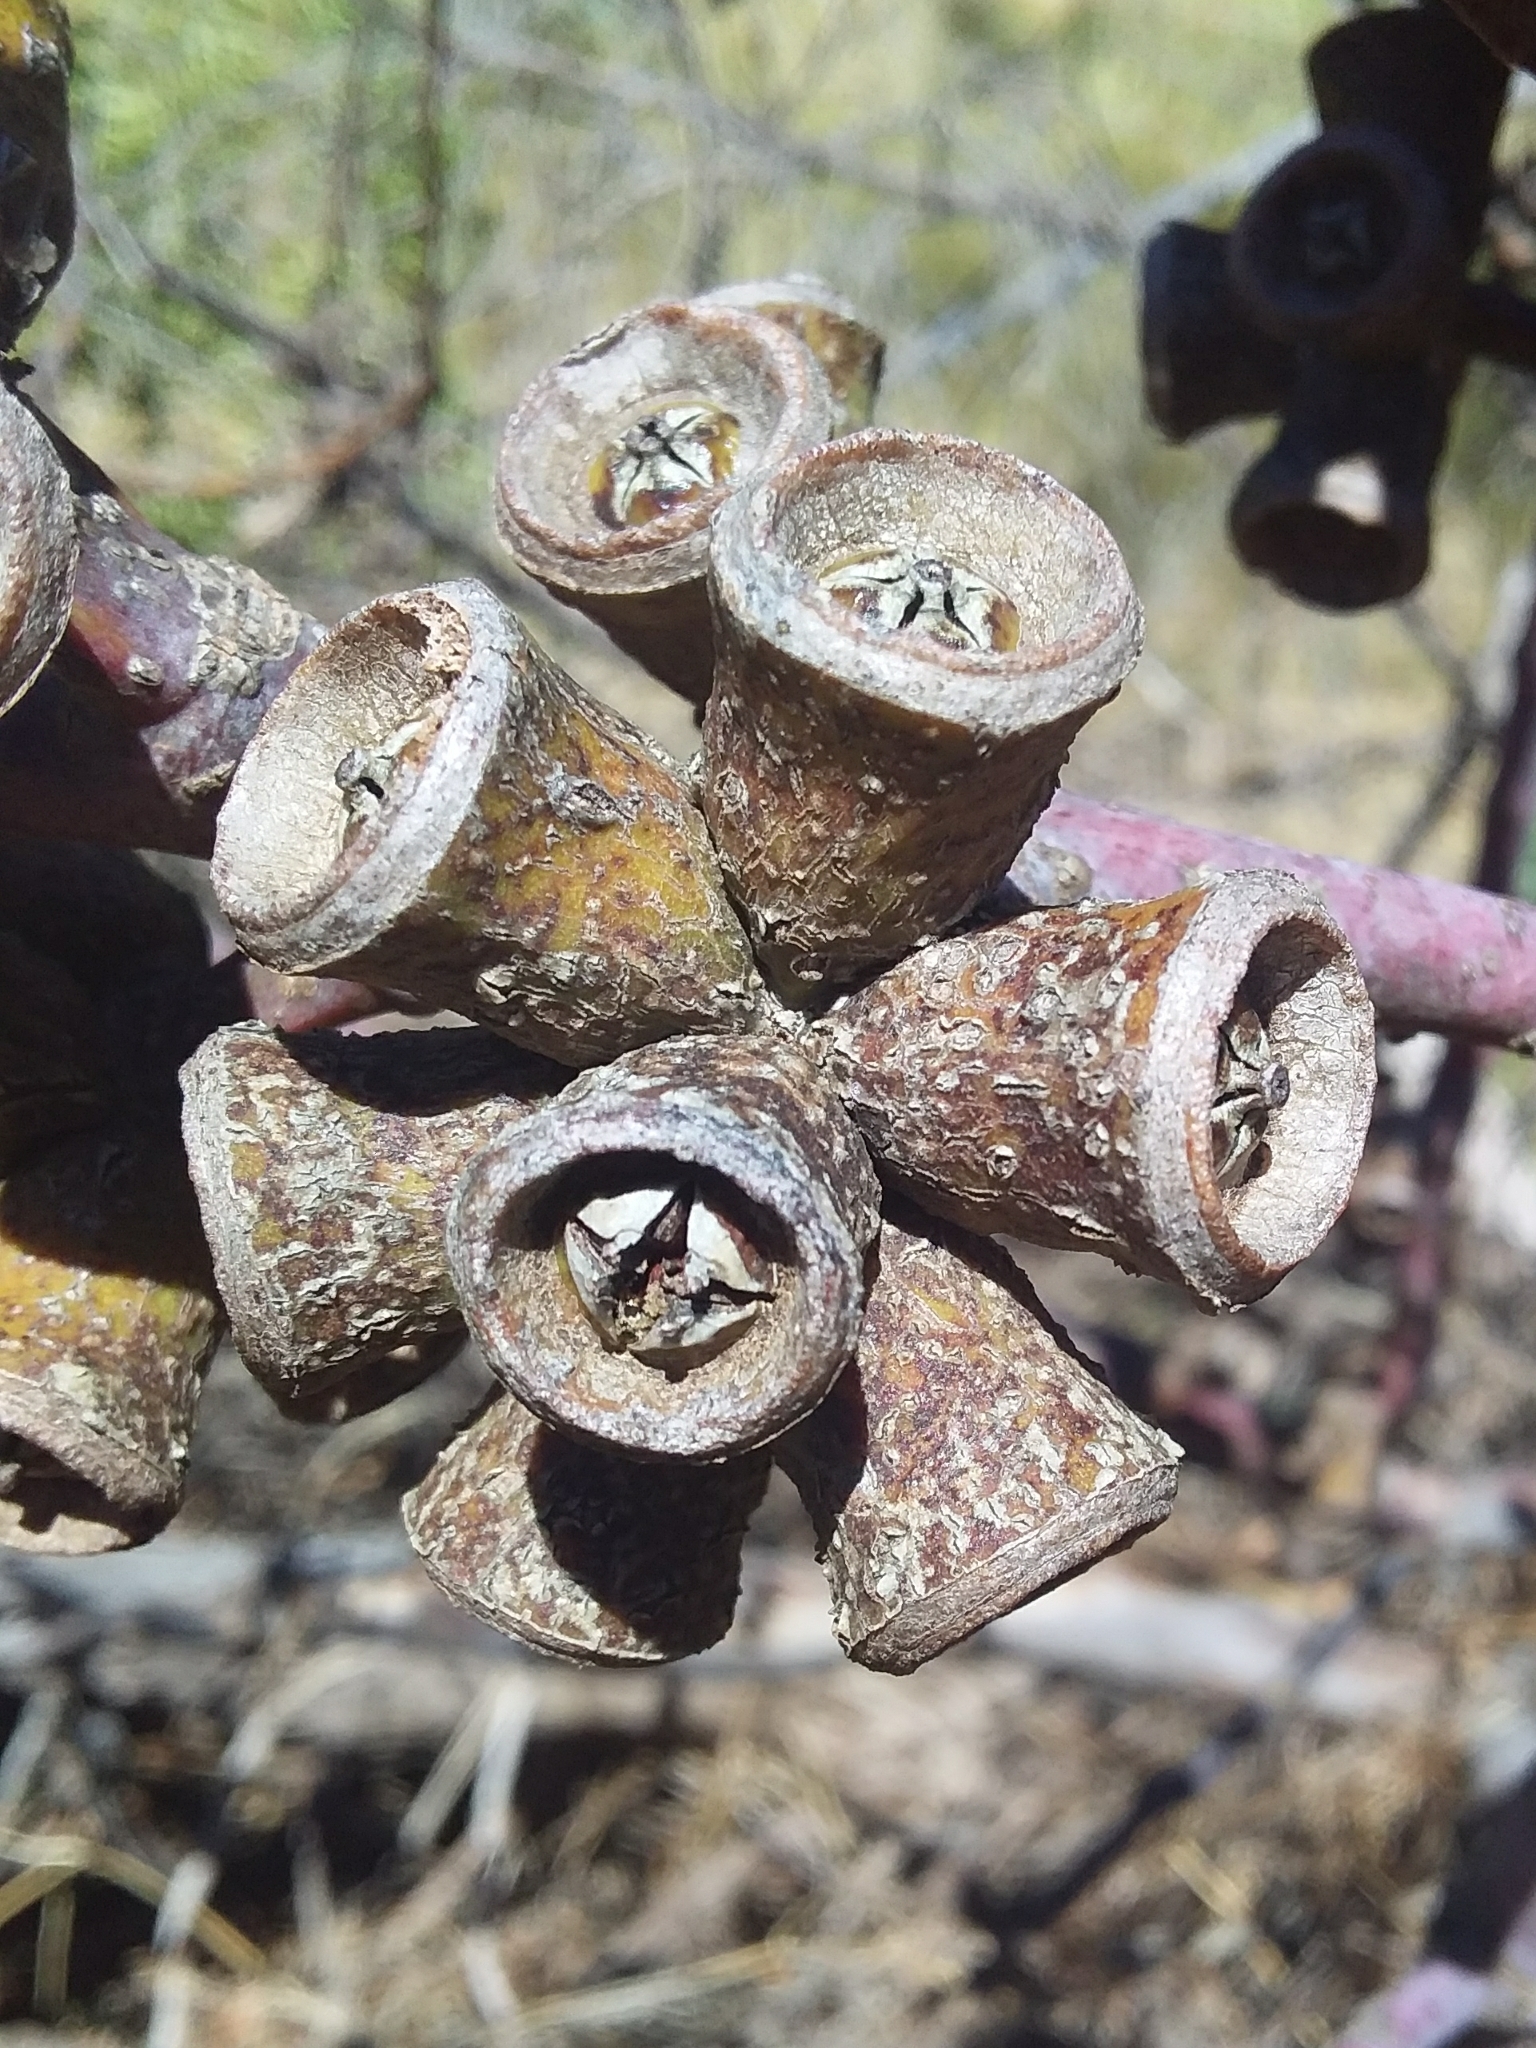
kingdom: Plantae
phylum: Tracheophyta
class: Magnoliopsida
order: Myrtales
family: Myrtaceae
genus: Eucalyptus
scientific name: Eucalyptus stricklandii
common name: Goldfields yellow-flower gum
